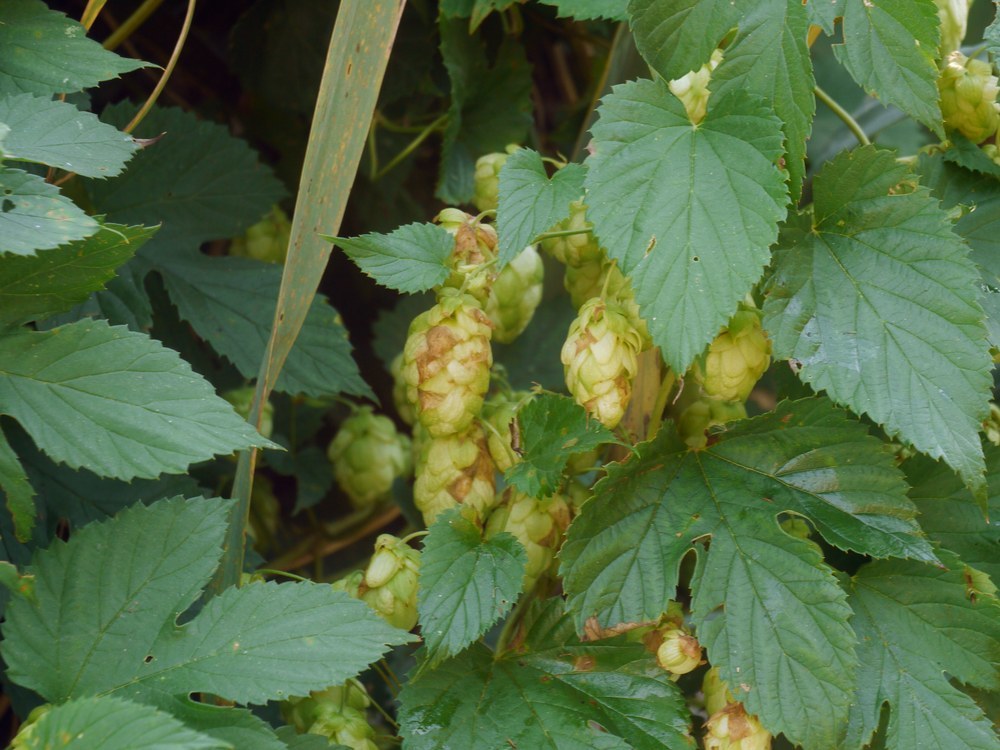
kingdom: Plantae
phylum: Tracheophyta
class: Magnoliopsida
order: Rosales
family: Cannabaceae
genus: Humulus
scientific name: Humulus lupulus
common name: Hop
